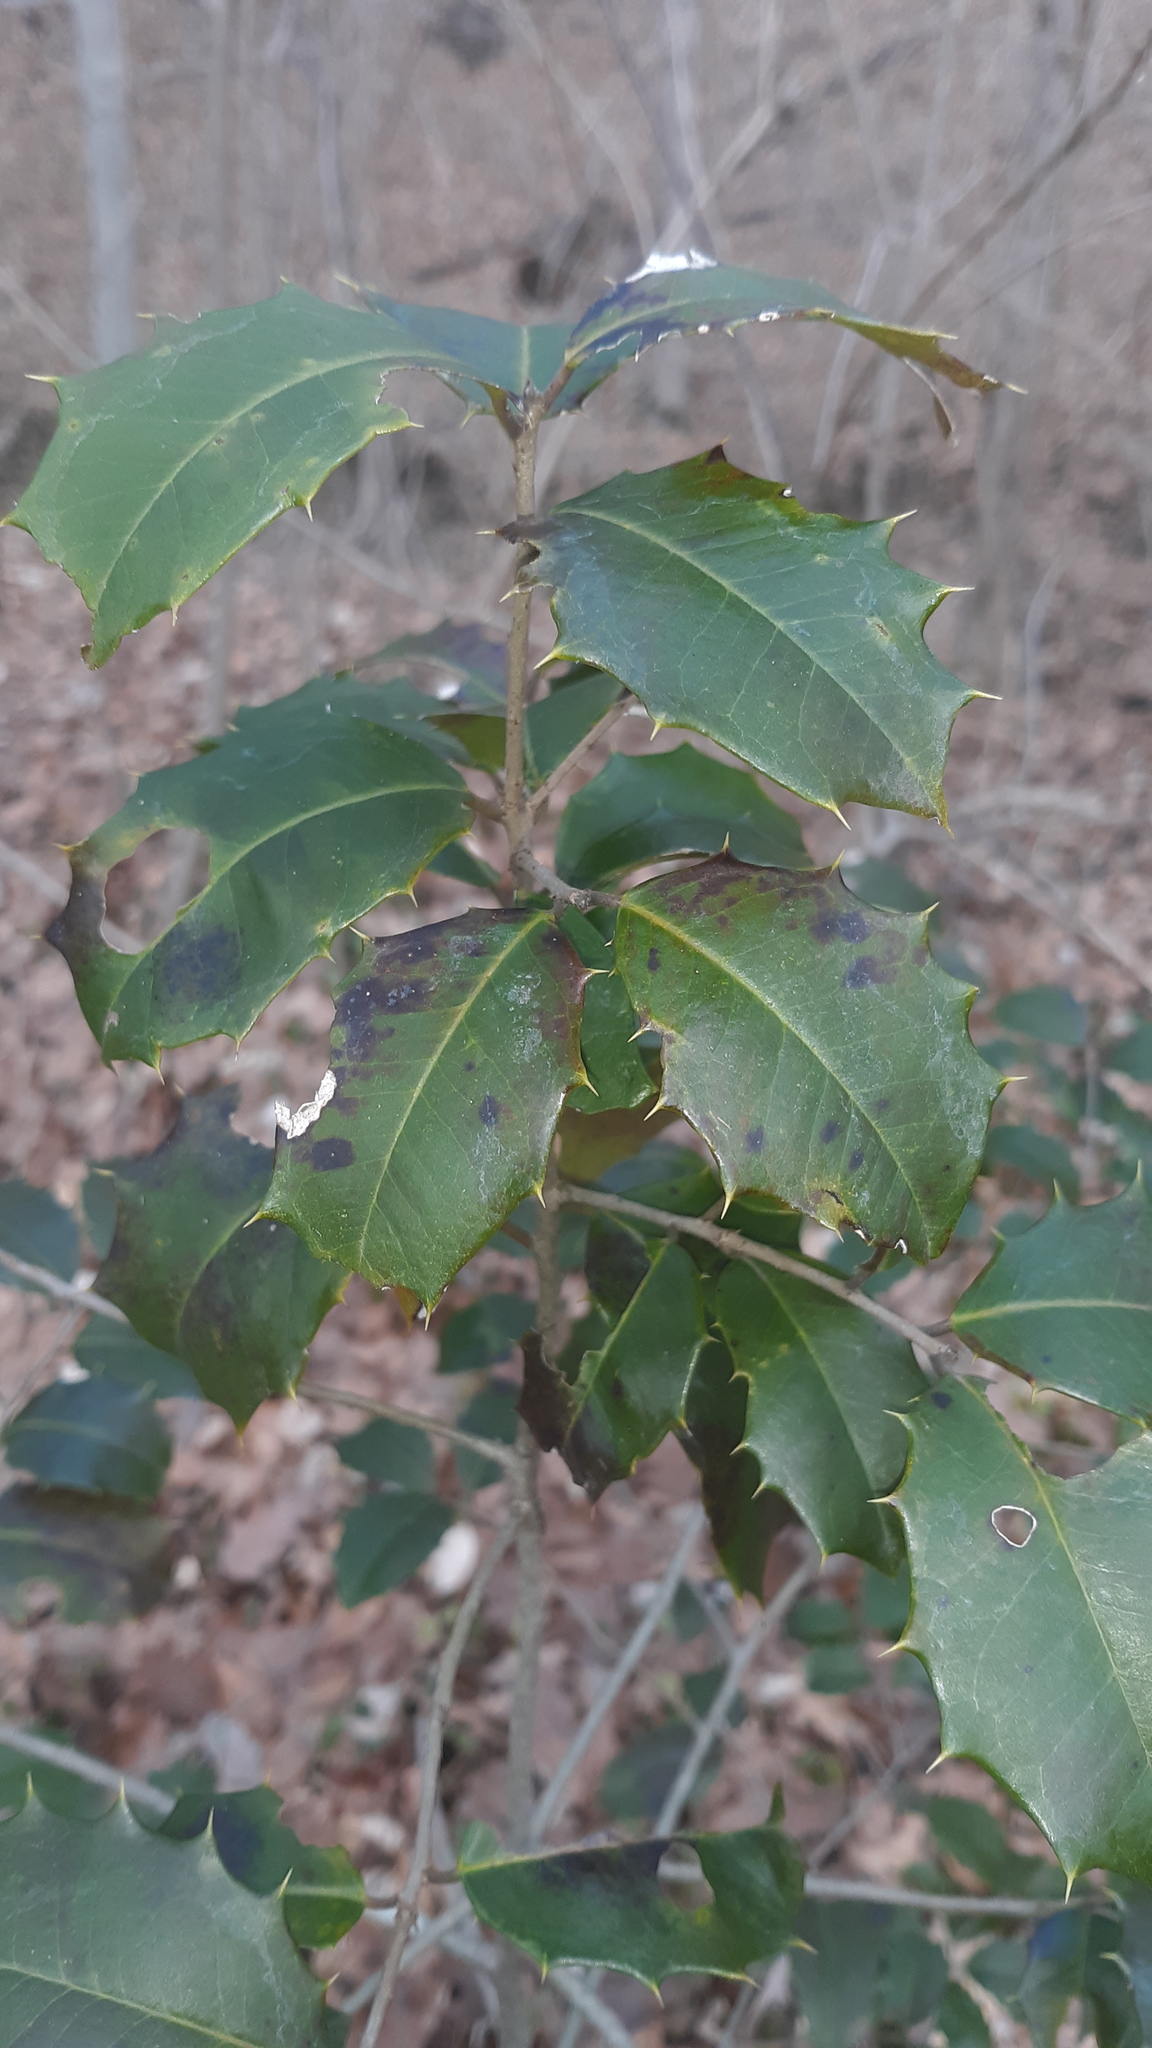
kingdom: Plantae
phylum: Tracheophyta
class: Magnoliopsida
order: Aquifoliales
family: Aquifoliaceae
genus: Ilex
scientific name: Ilex opaca
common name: American holly
